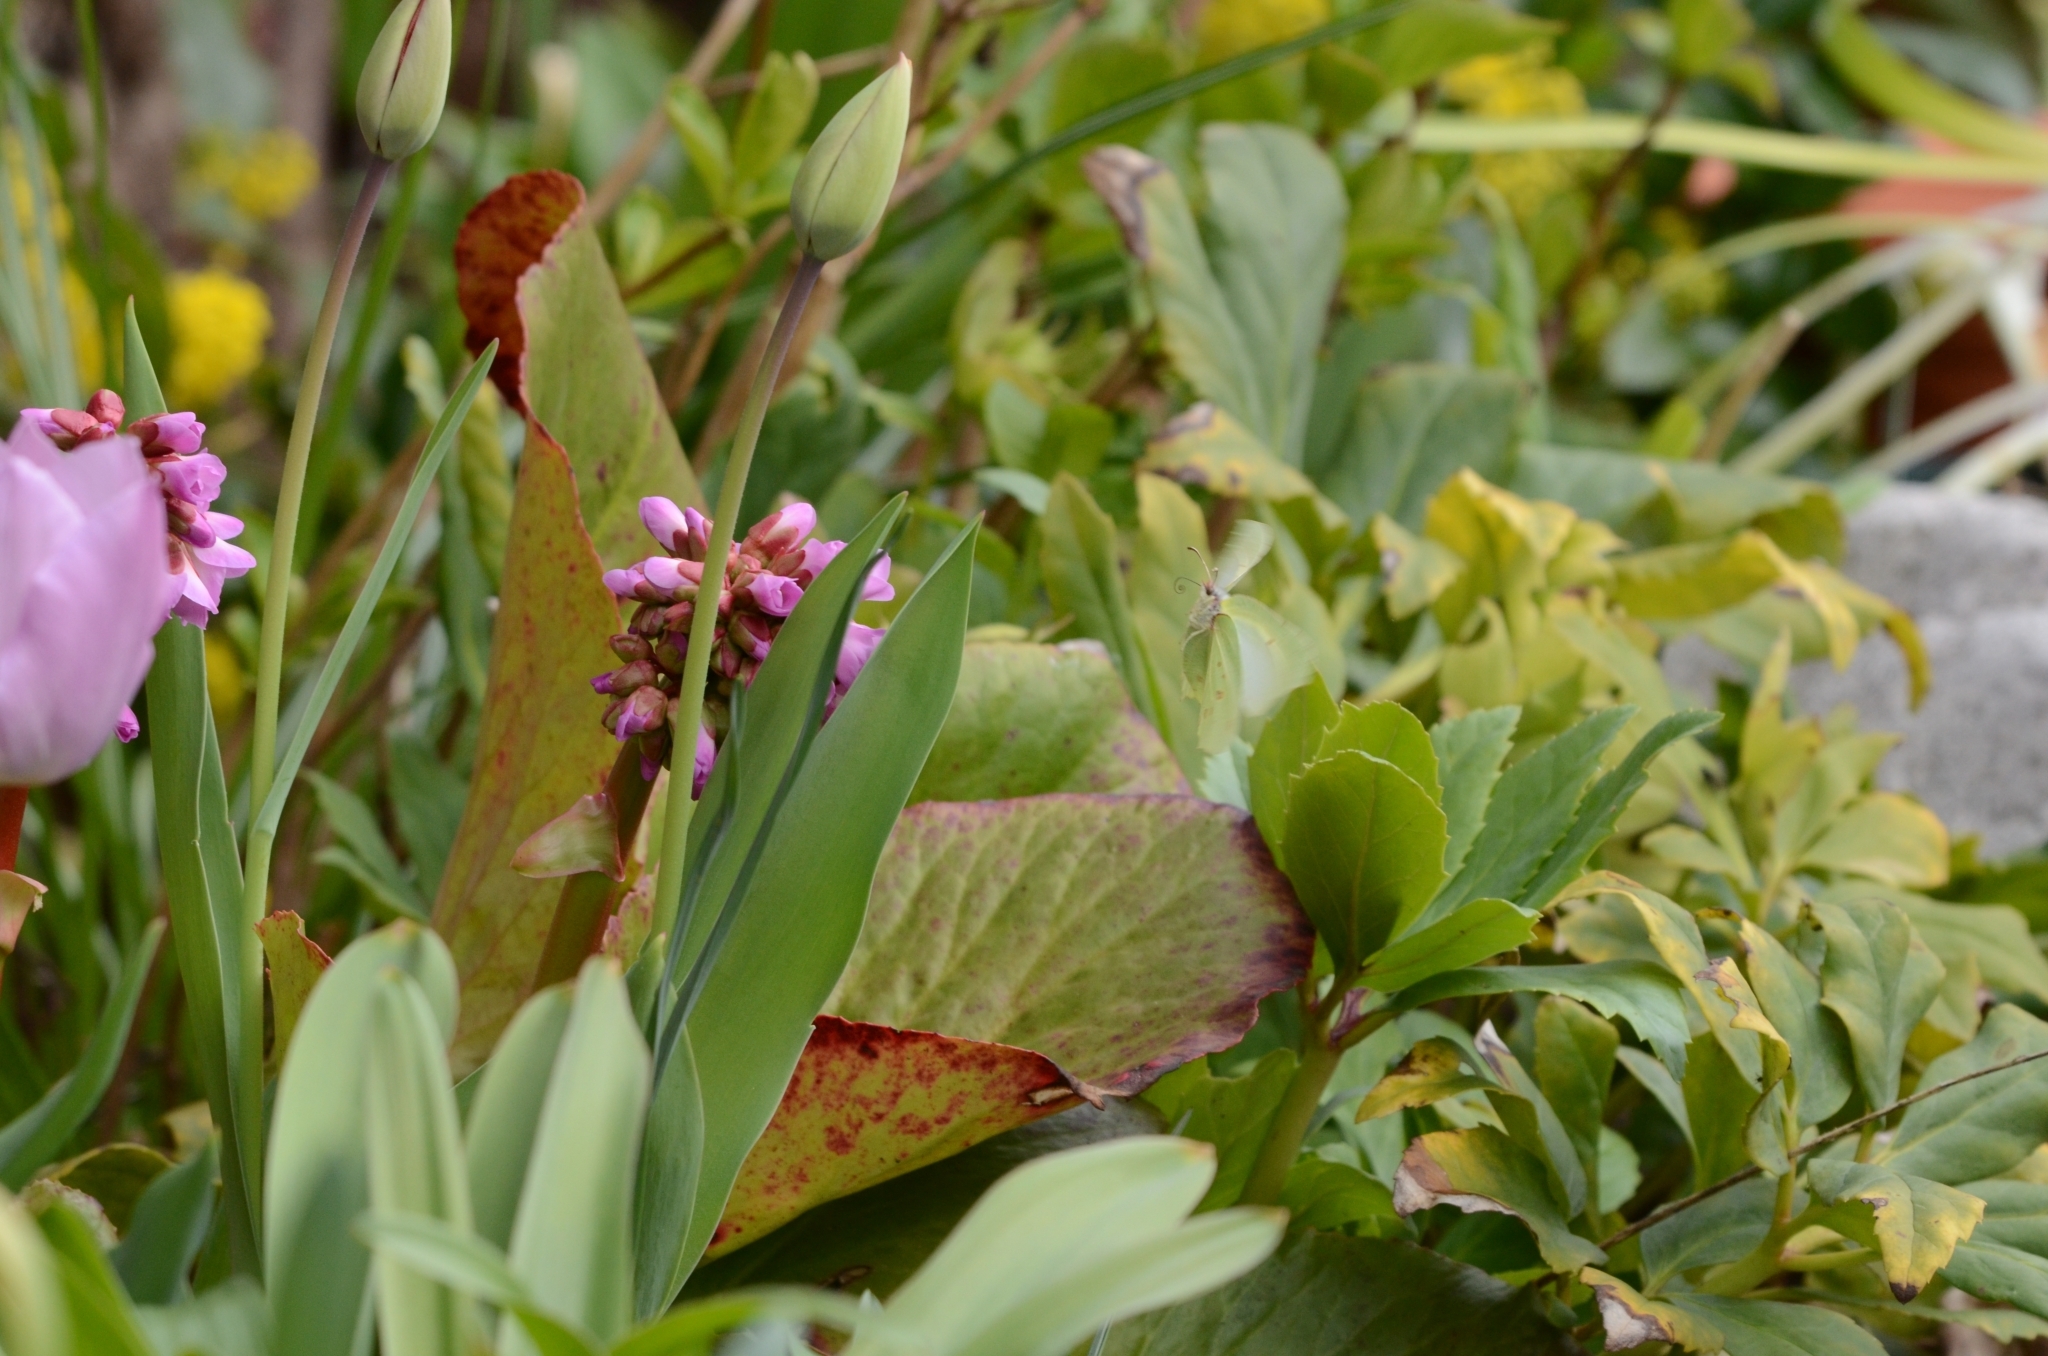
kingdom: Animalia
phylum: Arthropoda
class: Insecta
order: Lepidoptera
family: Pieridae
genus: Gonepteryx
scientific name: Gonepteryx rhamni
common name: Brimstone
